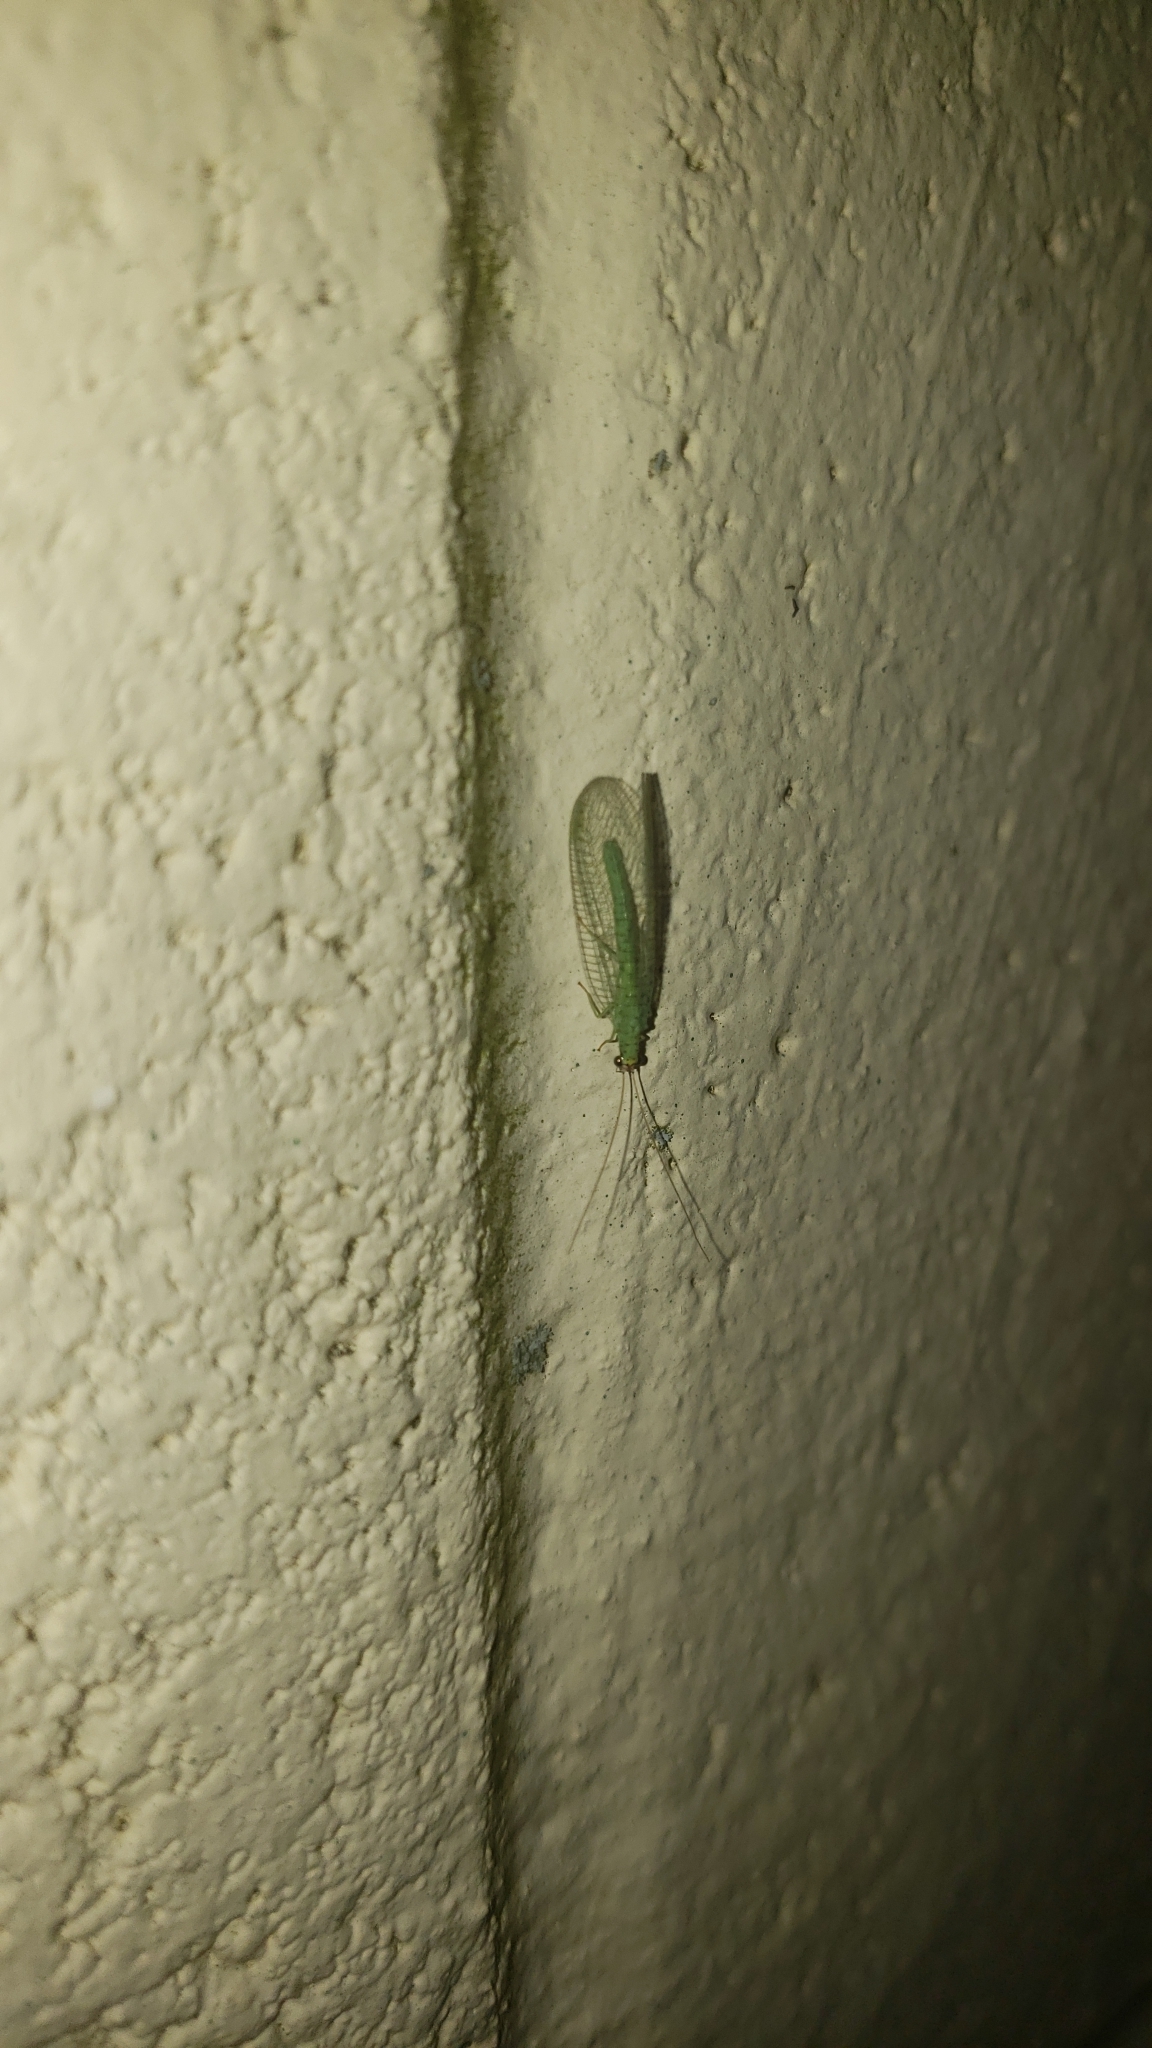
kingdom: Animalia
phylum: Arthropoda
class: Insecta
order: Neuroptera
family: Chrysopidae
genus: Chrysopa
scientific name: Chrysopa oculata
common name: Golden-eyed lacewing
